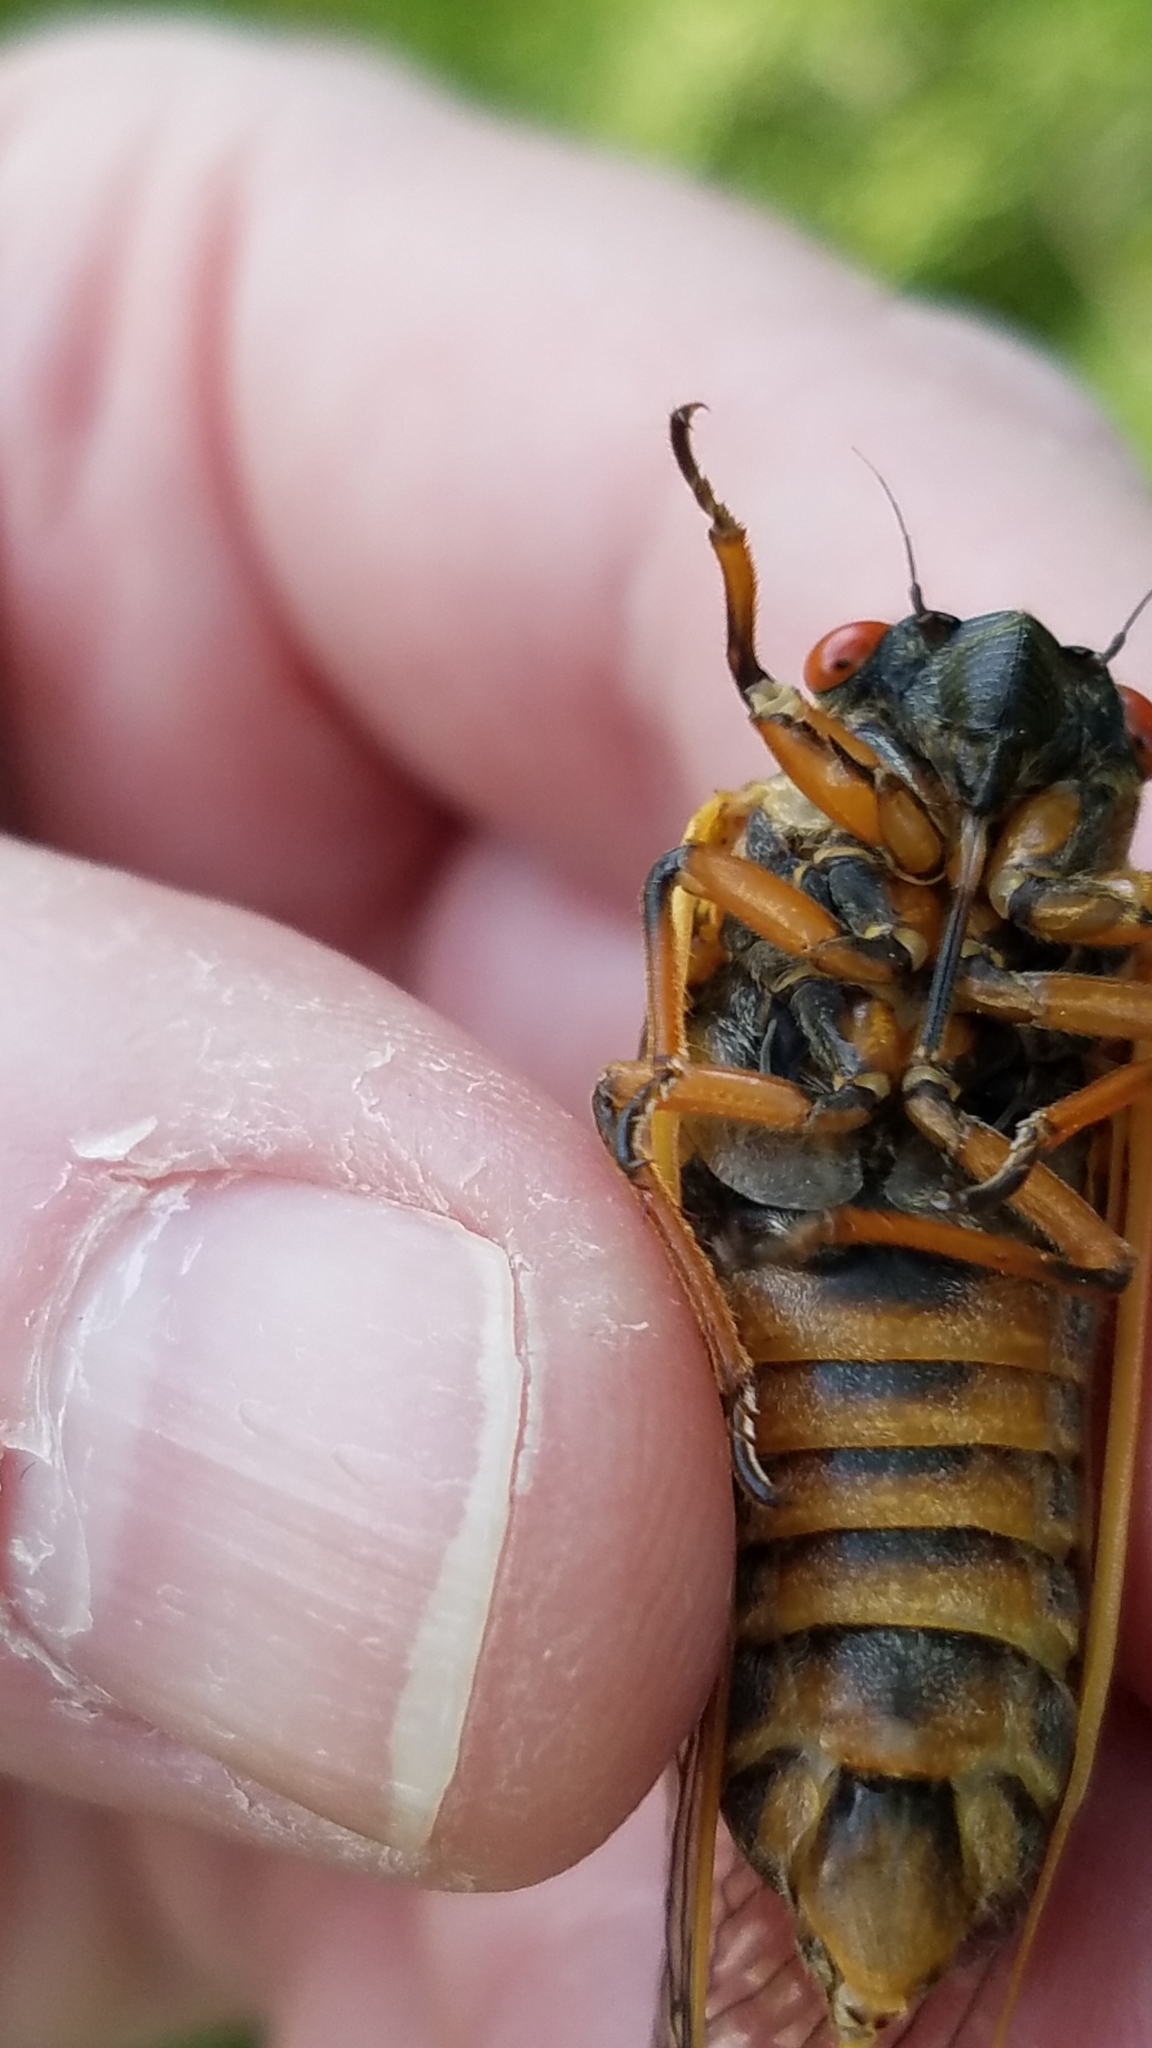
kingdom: Animalia
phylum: Arthropoda
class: Insecta
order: Hemiptera
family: Cicadidae
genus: Magicicada
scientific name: Magicicada septendecim
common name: Periodical cicada
